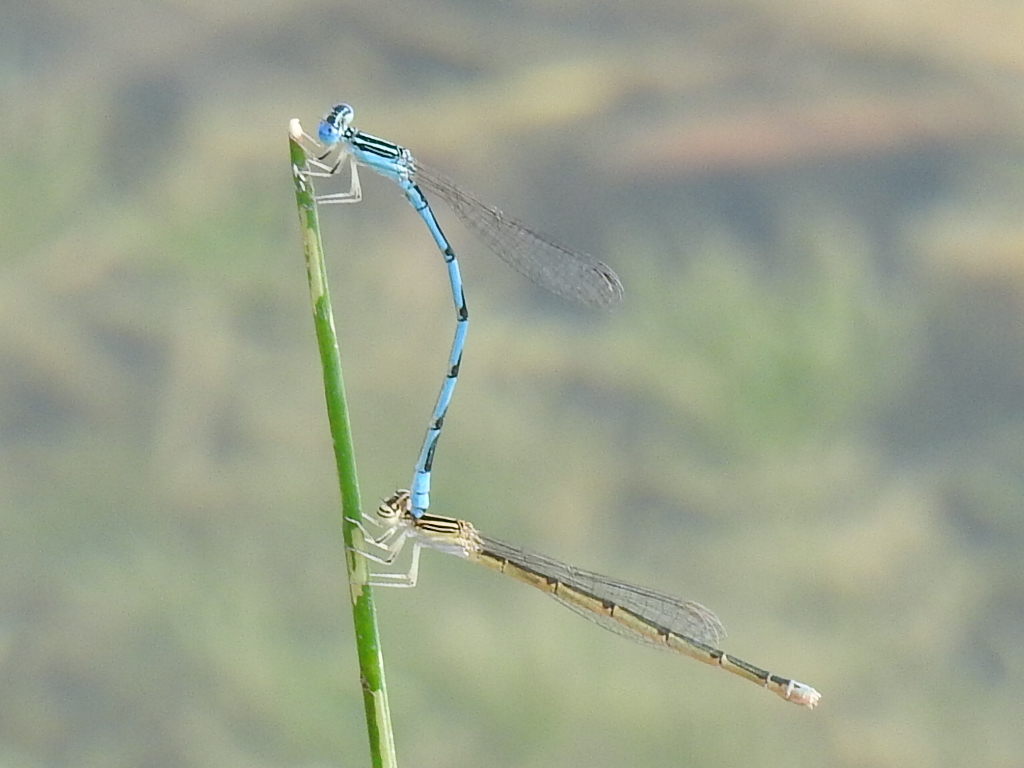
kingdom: Animalia
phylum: Arthropoda
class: Insecta
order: Odonata
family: Coenagrionidae
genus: Enallagma
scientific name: Enallagma basidens
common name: Double-striped bluet
